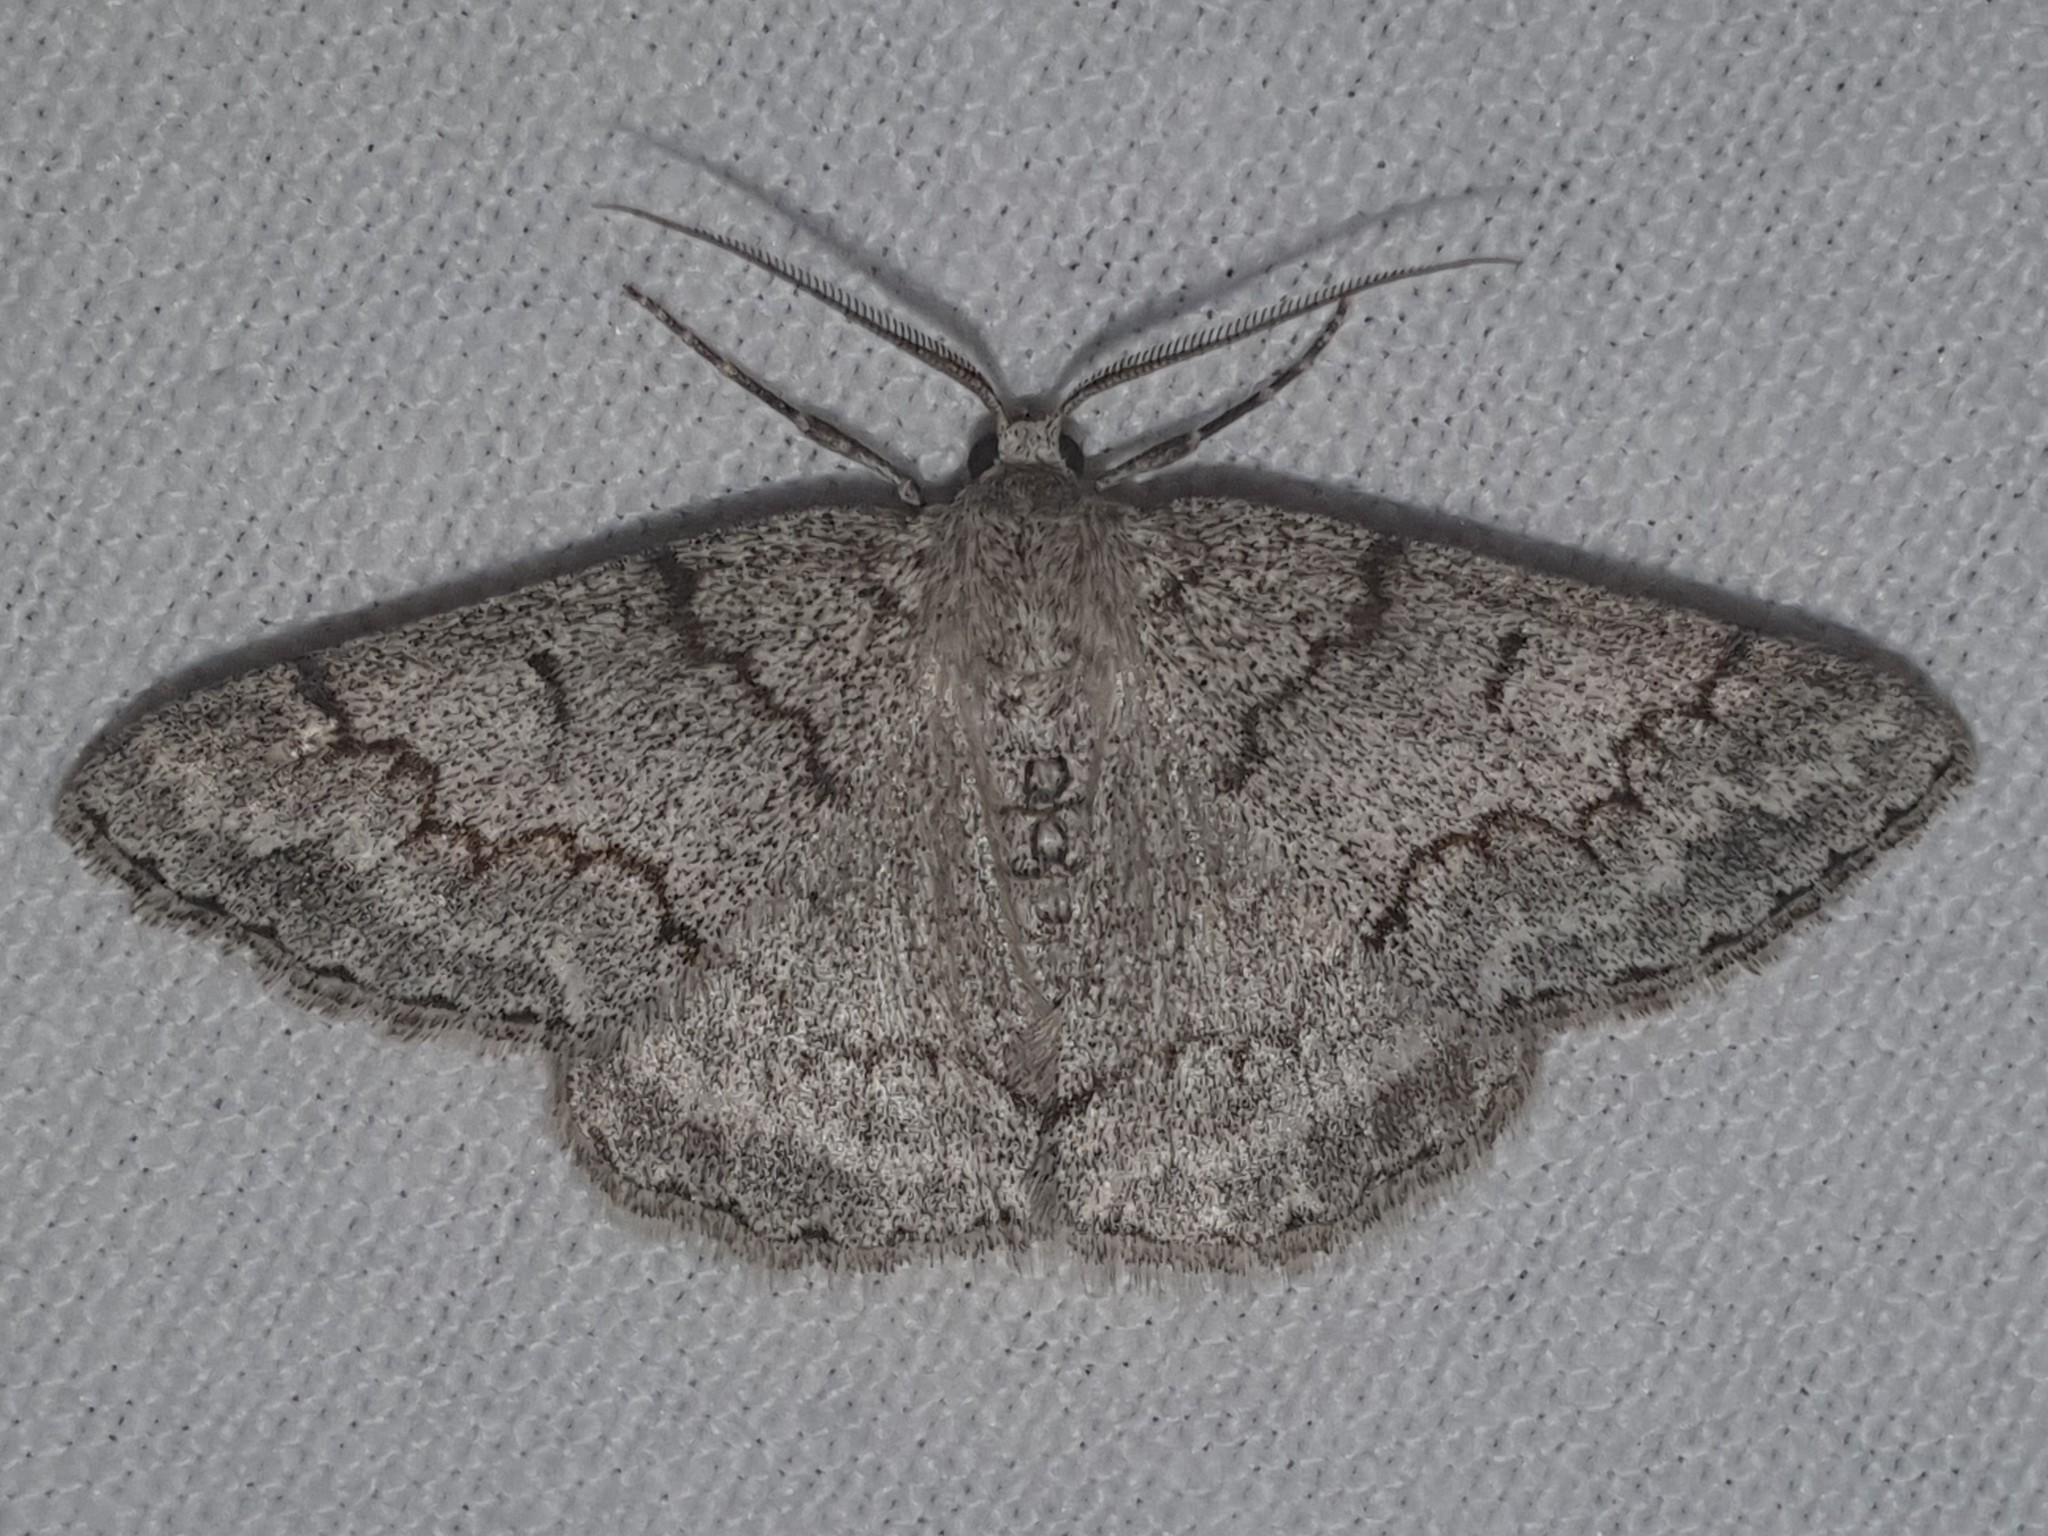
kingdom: Animalia
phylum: Arthropoda
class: Insecta
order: Lepidoptera
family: Geometridae
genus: Pseudoterpna
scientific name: Pseudoterpna coronillaria
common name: Jersey emerald
